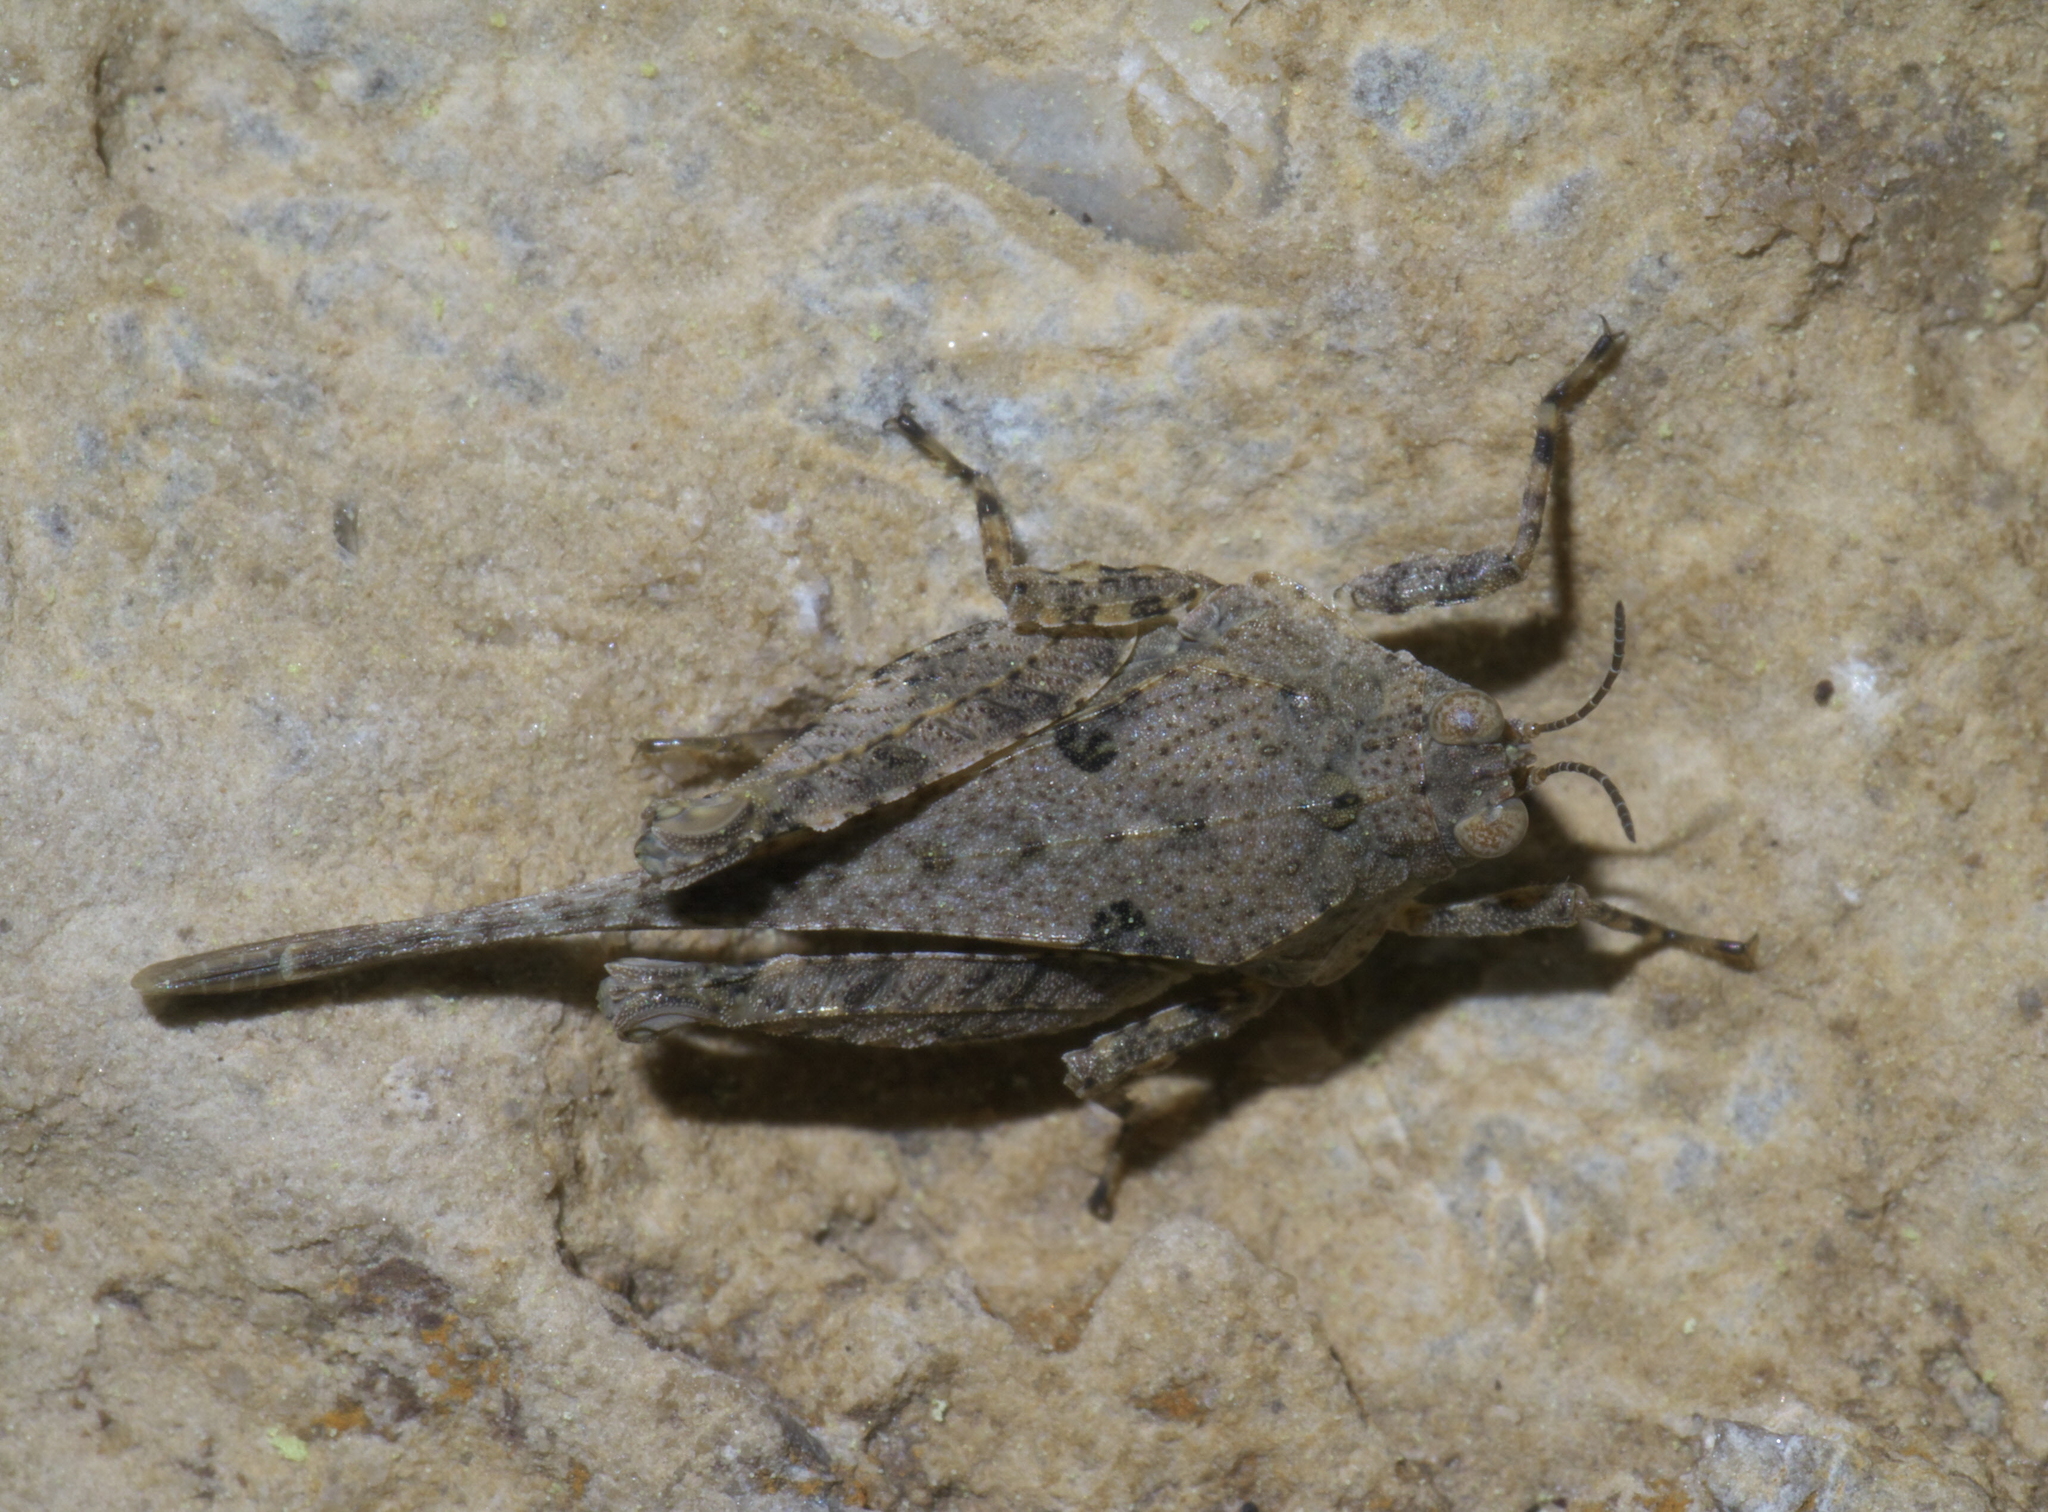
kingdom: Animalia
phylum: Arthropoda
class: Insecta
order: Orthoptera
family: Tetrigidae
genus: Paratettix
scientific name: Paratettix cucullatus
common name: Hooded grouse locust
